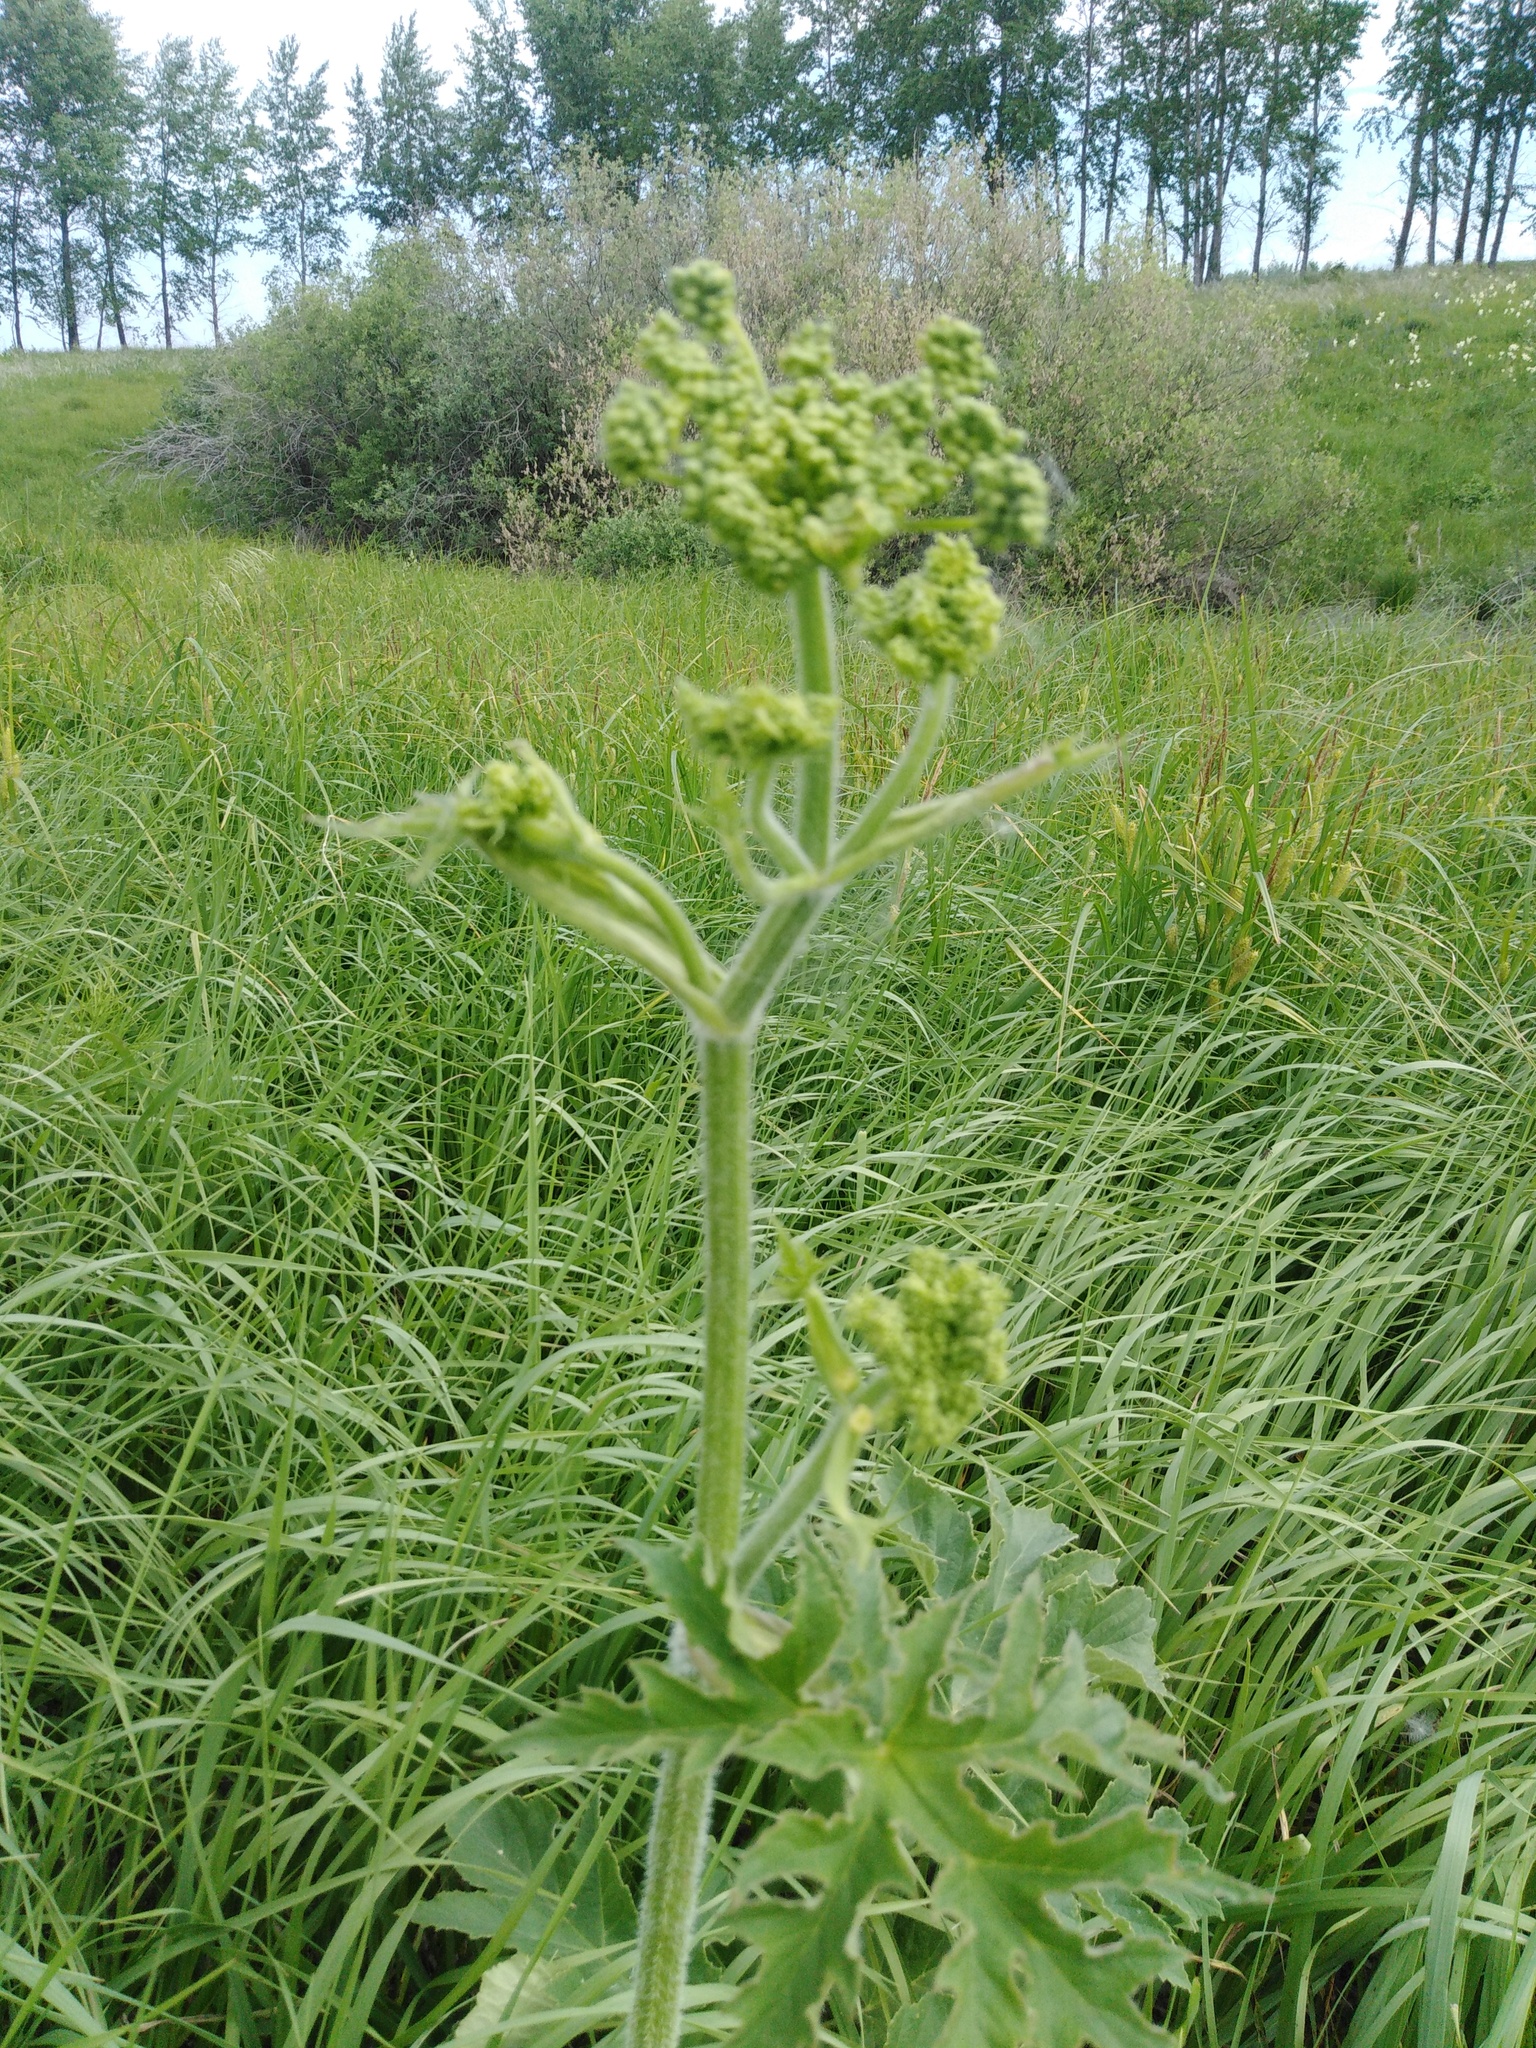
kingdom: Plantae
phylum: Tracheophyta
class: Magnoliopsida
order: Apiales
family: Apiaceae
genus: Heracleum
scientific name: Heracleum sphondylium
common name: Hogweed
